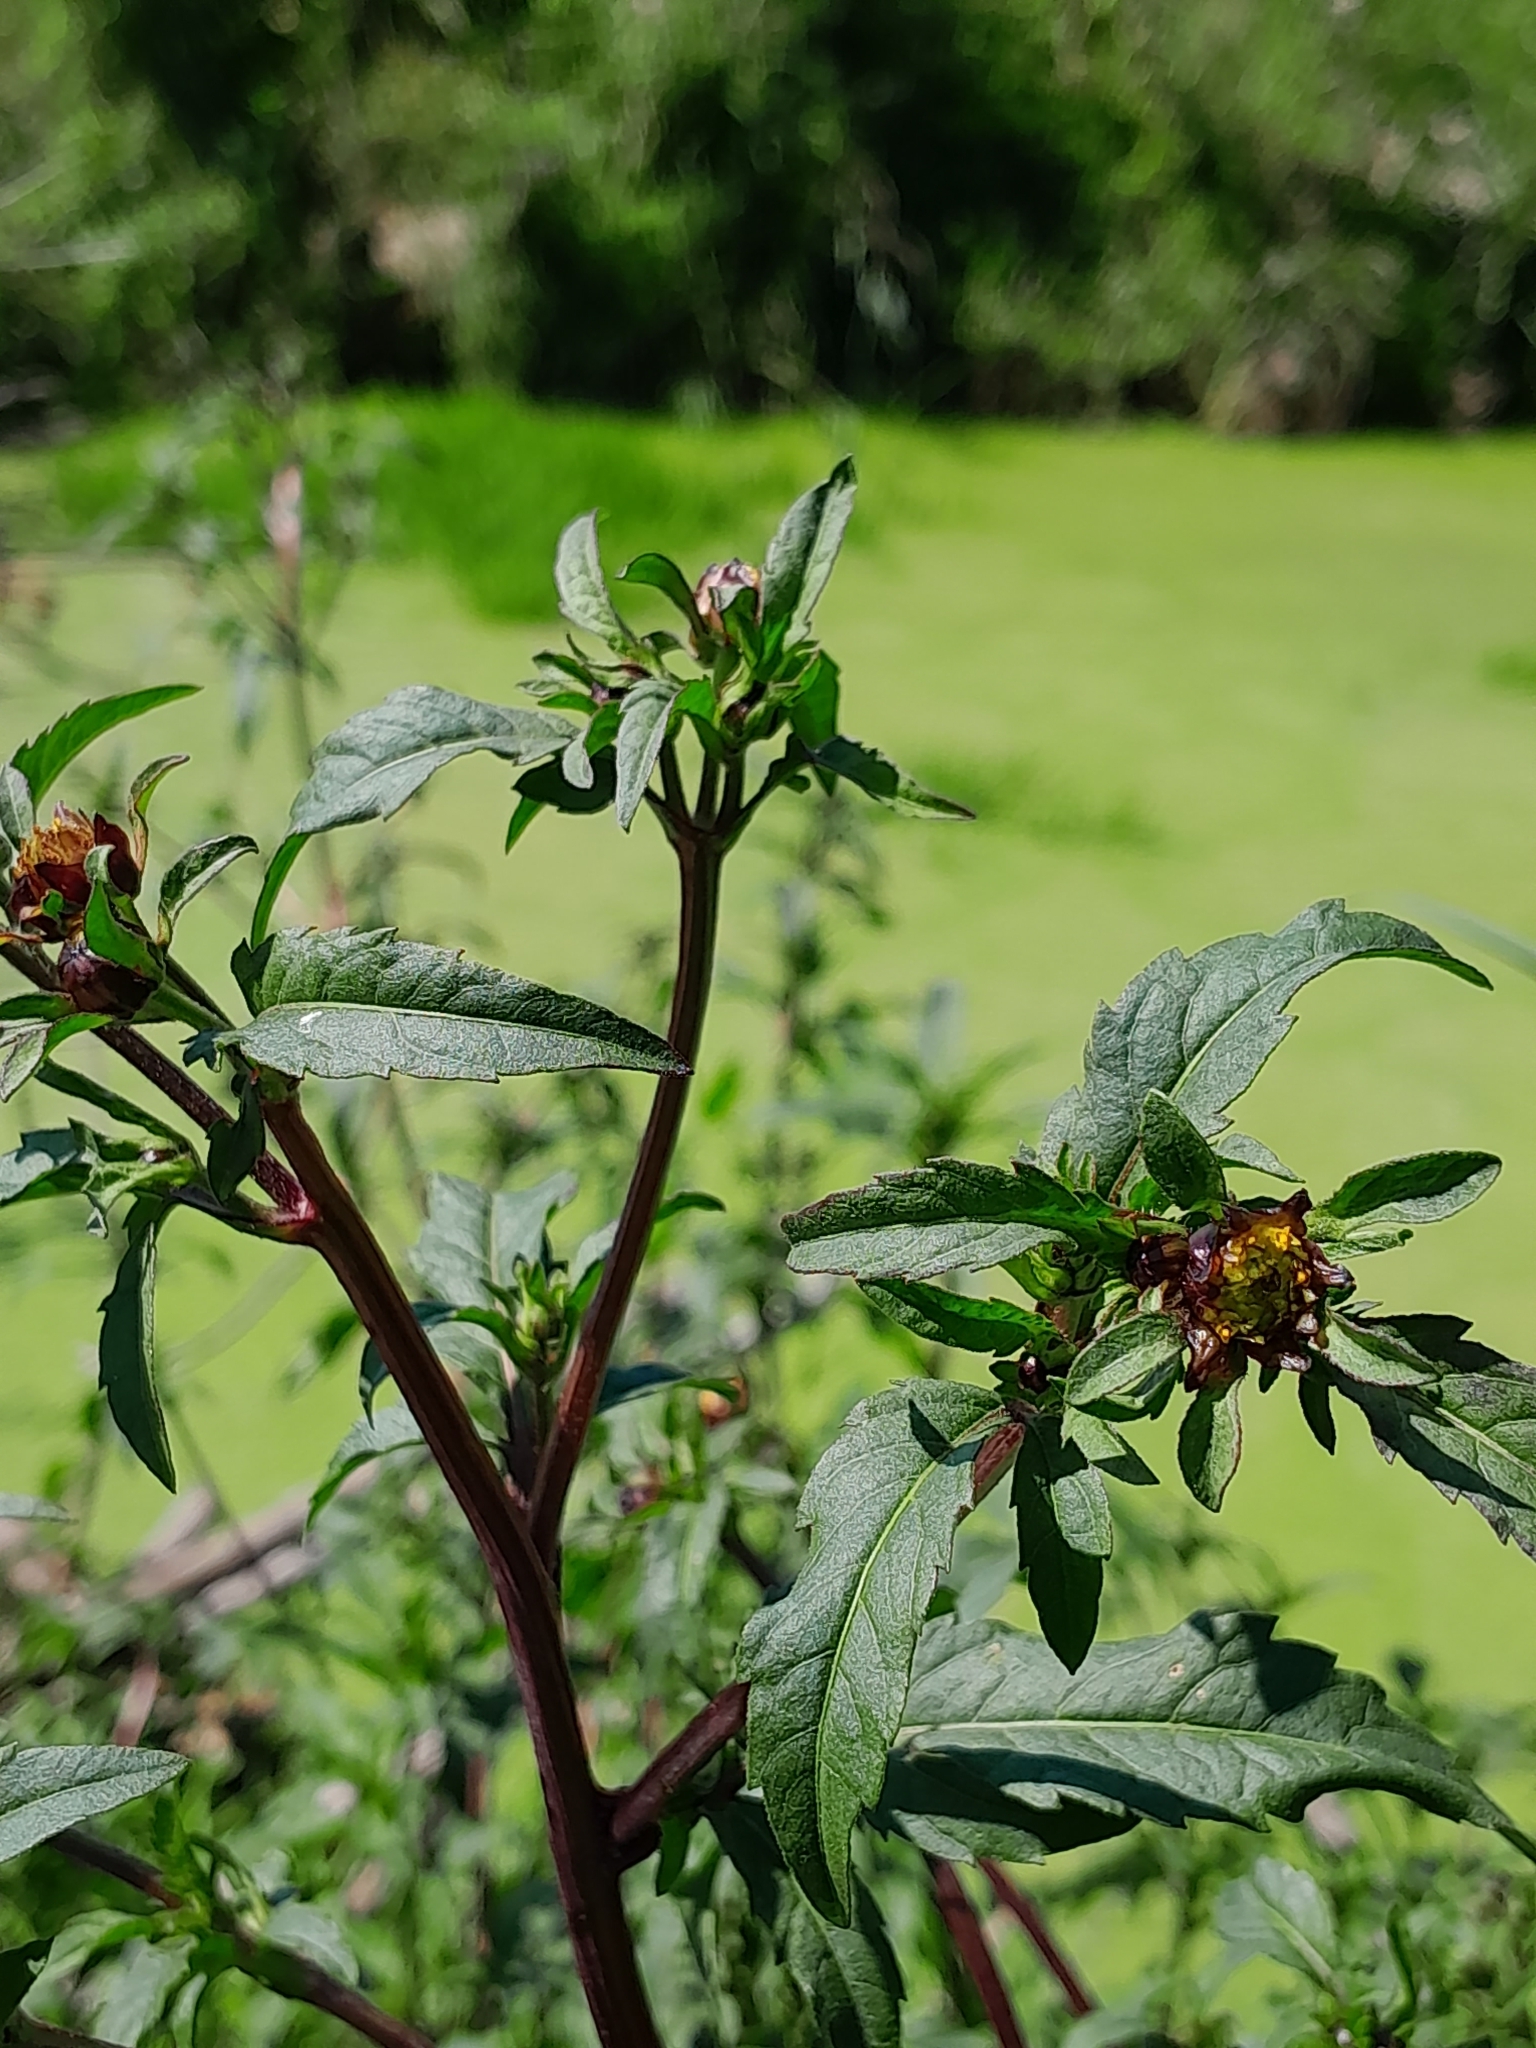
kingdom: Plantae
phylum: Tracheophyta
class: Magnoliopsida
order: Asterales
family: Asteraceae
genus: Bidens
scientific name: Bidens tripartita
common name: Trifid bur-marigold
